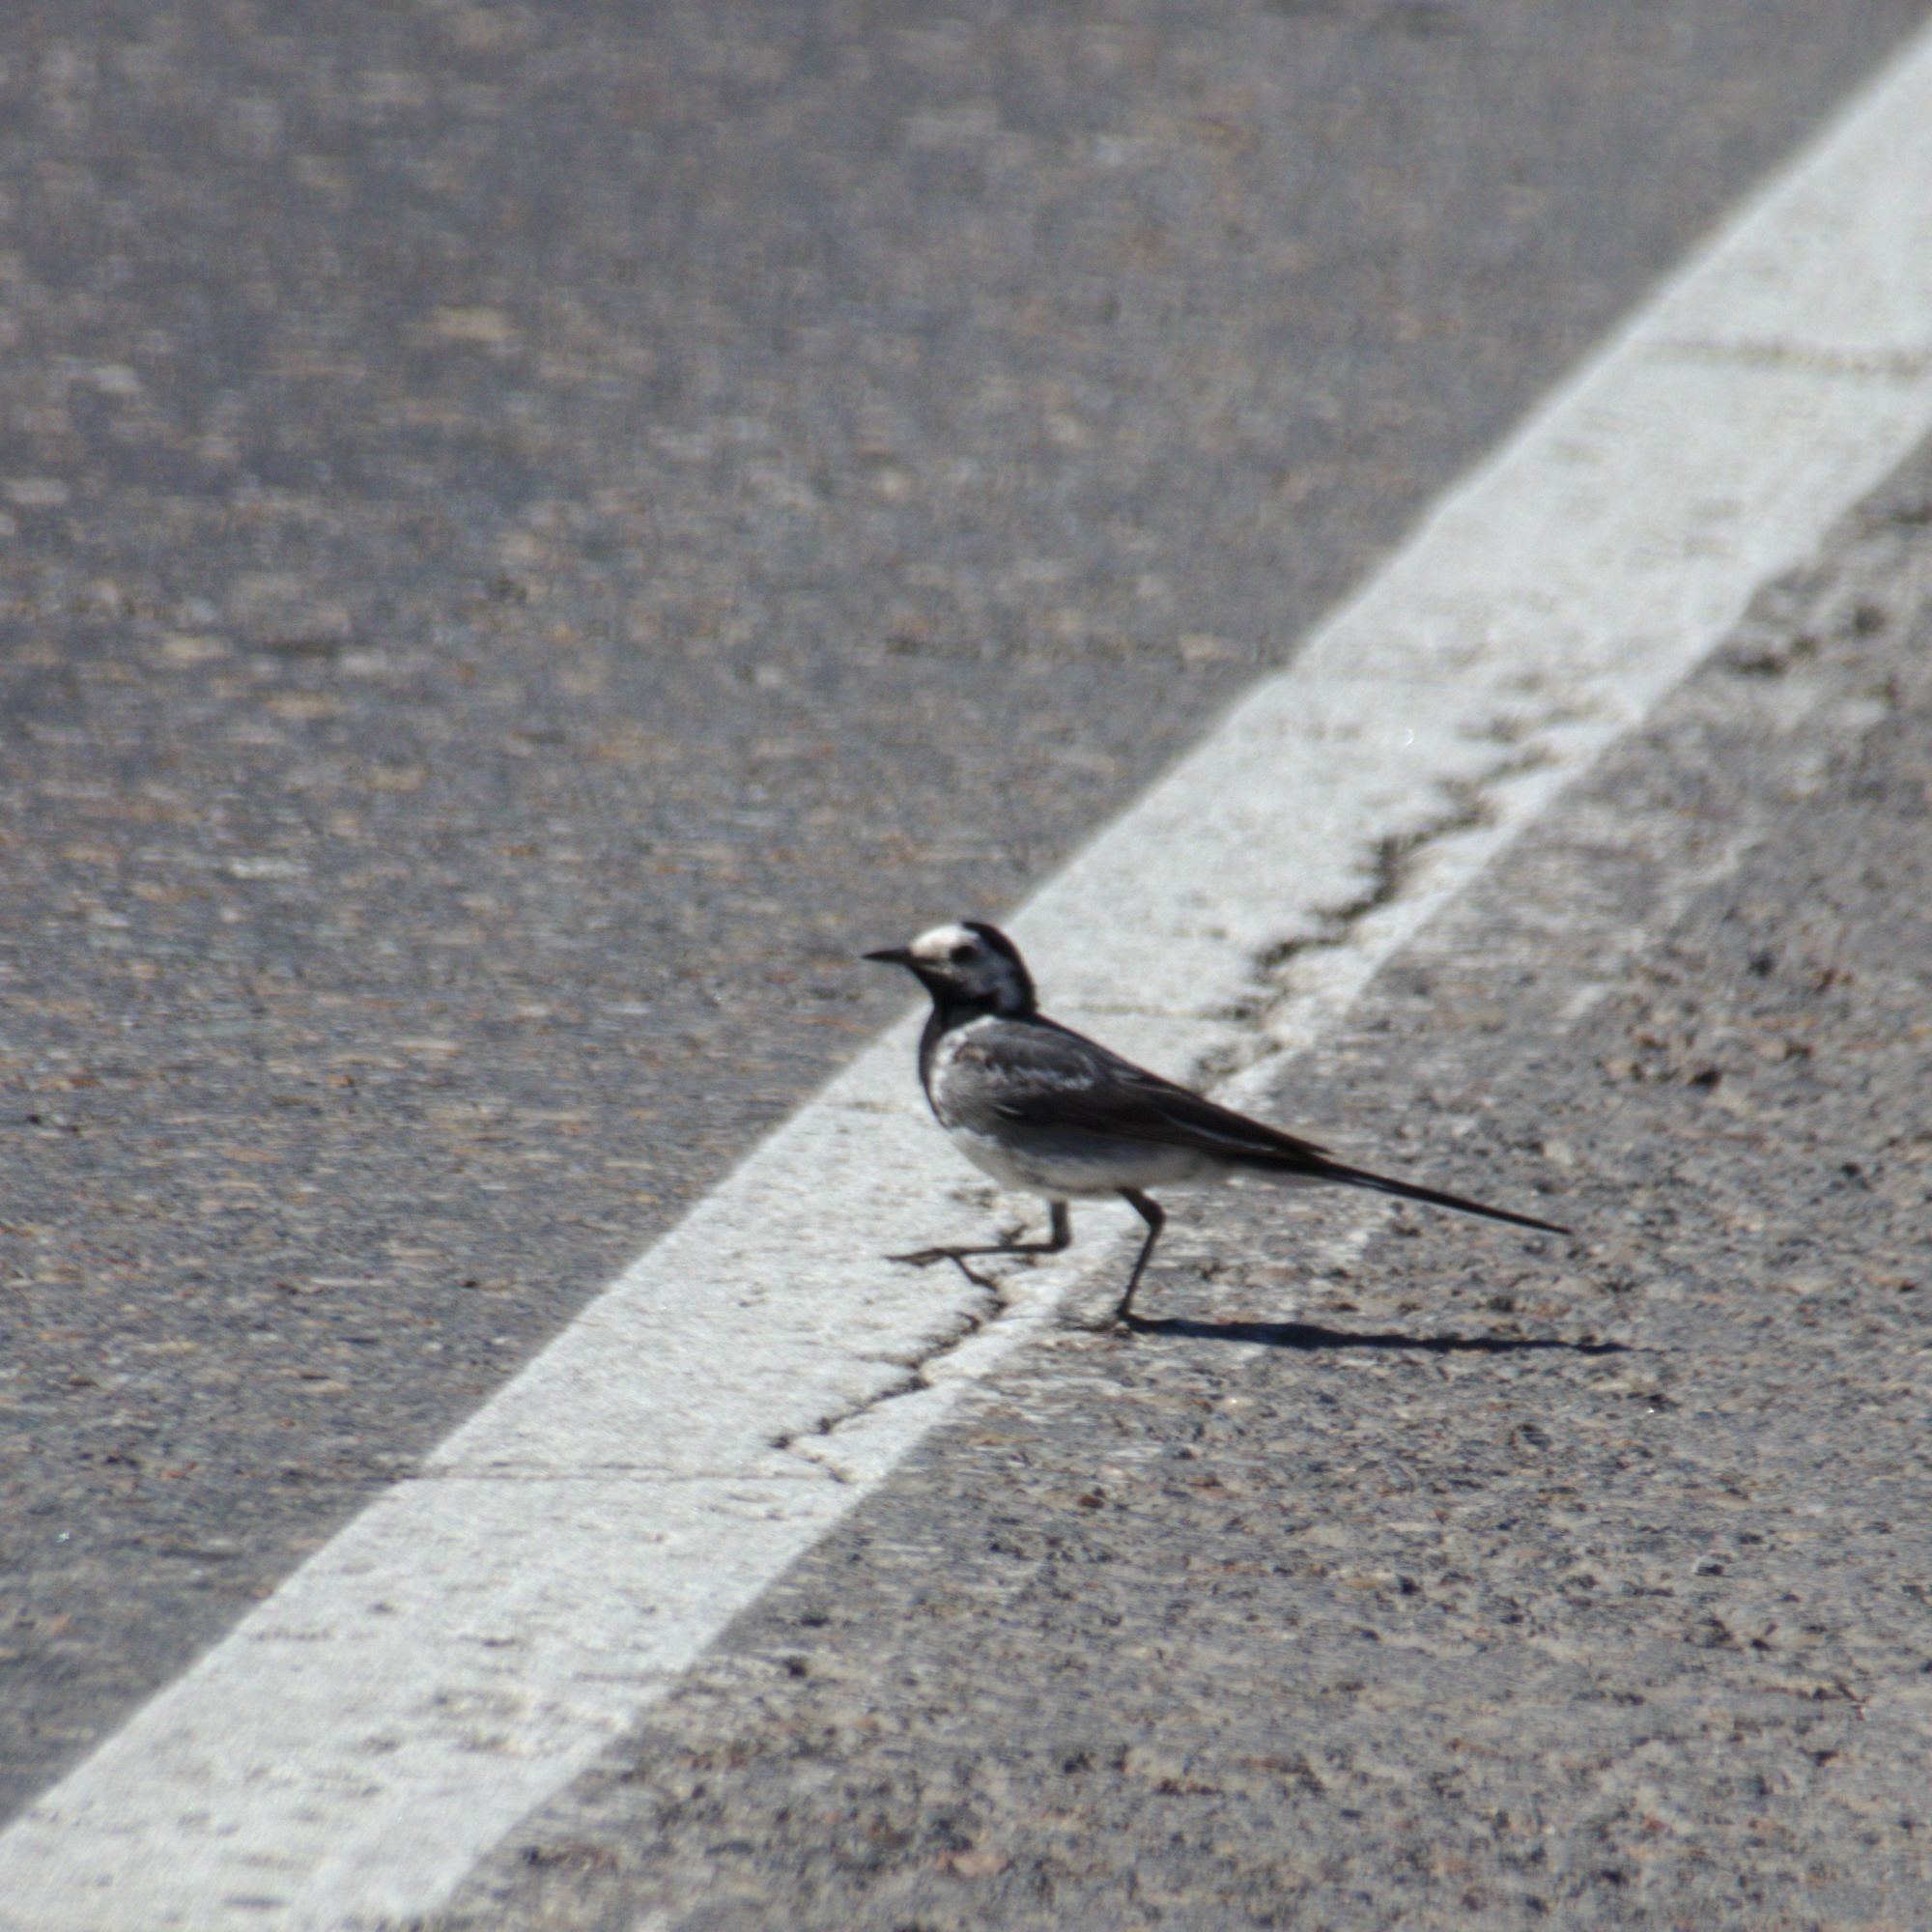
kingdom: Animalia
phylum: Chordata
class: Aves
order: Passeriformes
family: Motacillidae
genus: Motacilla
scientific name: Motacilla alba
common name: White wagtail
